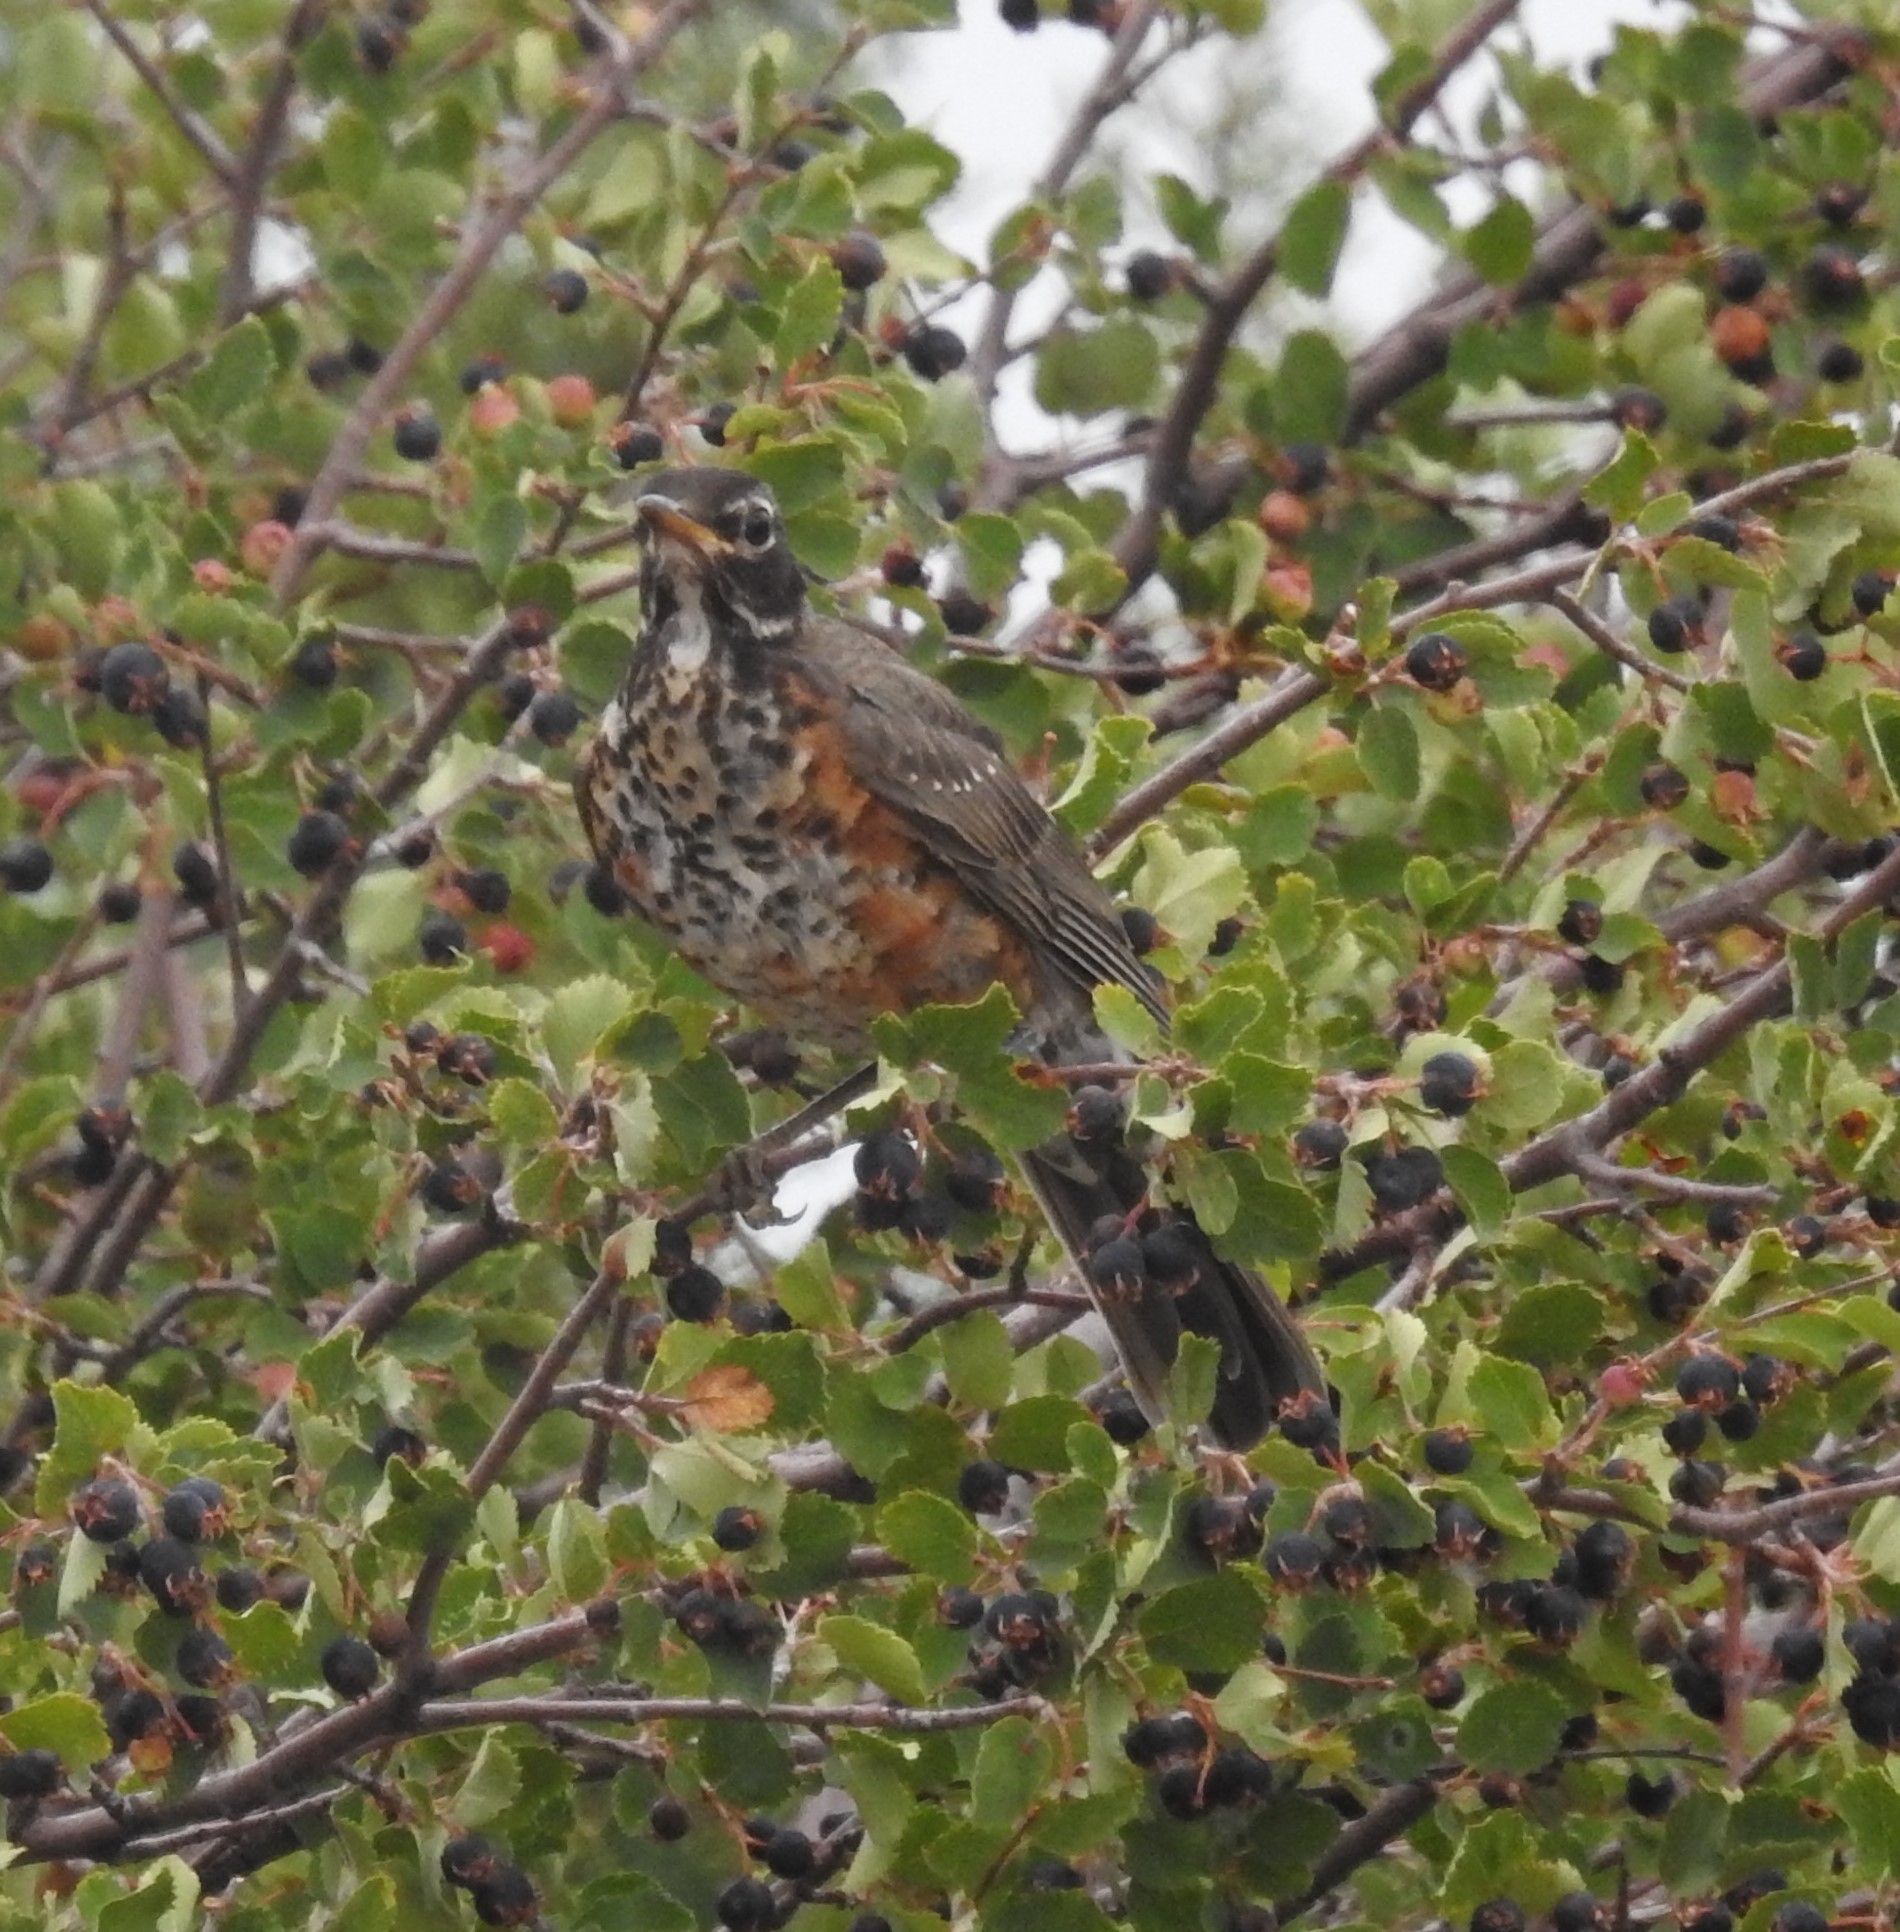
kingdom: Animalia
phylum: Chordata
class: Aves
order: Passeriformes
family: Turdidae
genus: Turdus
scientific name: Turdus migratorius
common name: American robin
